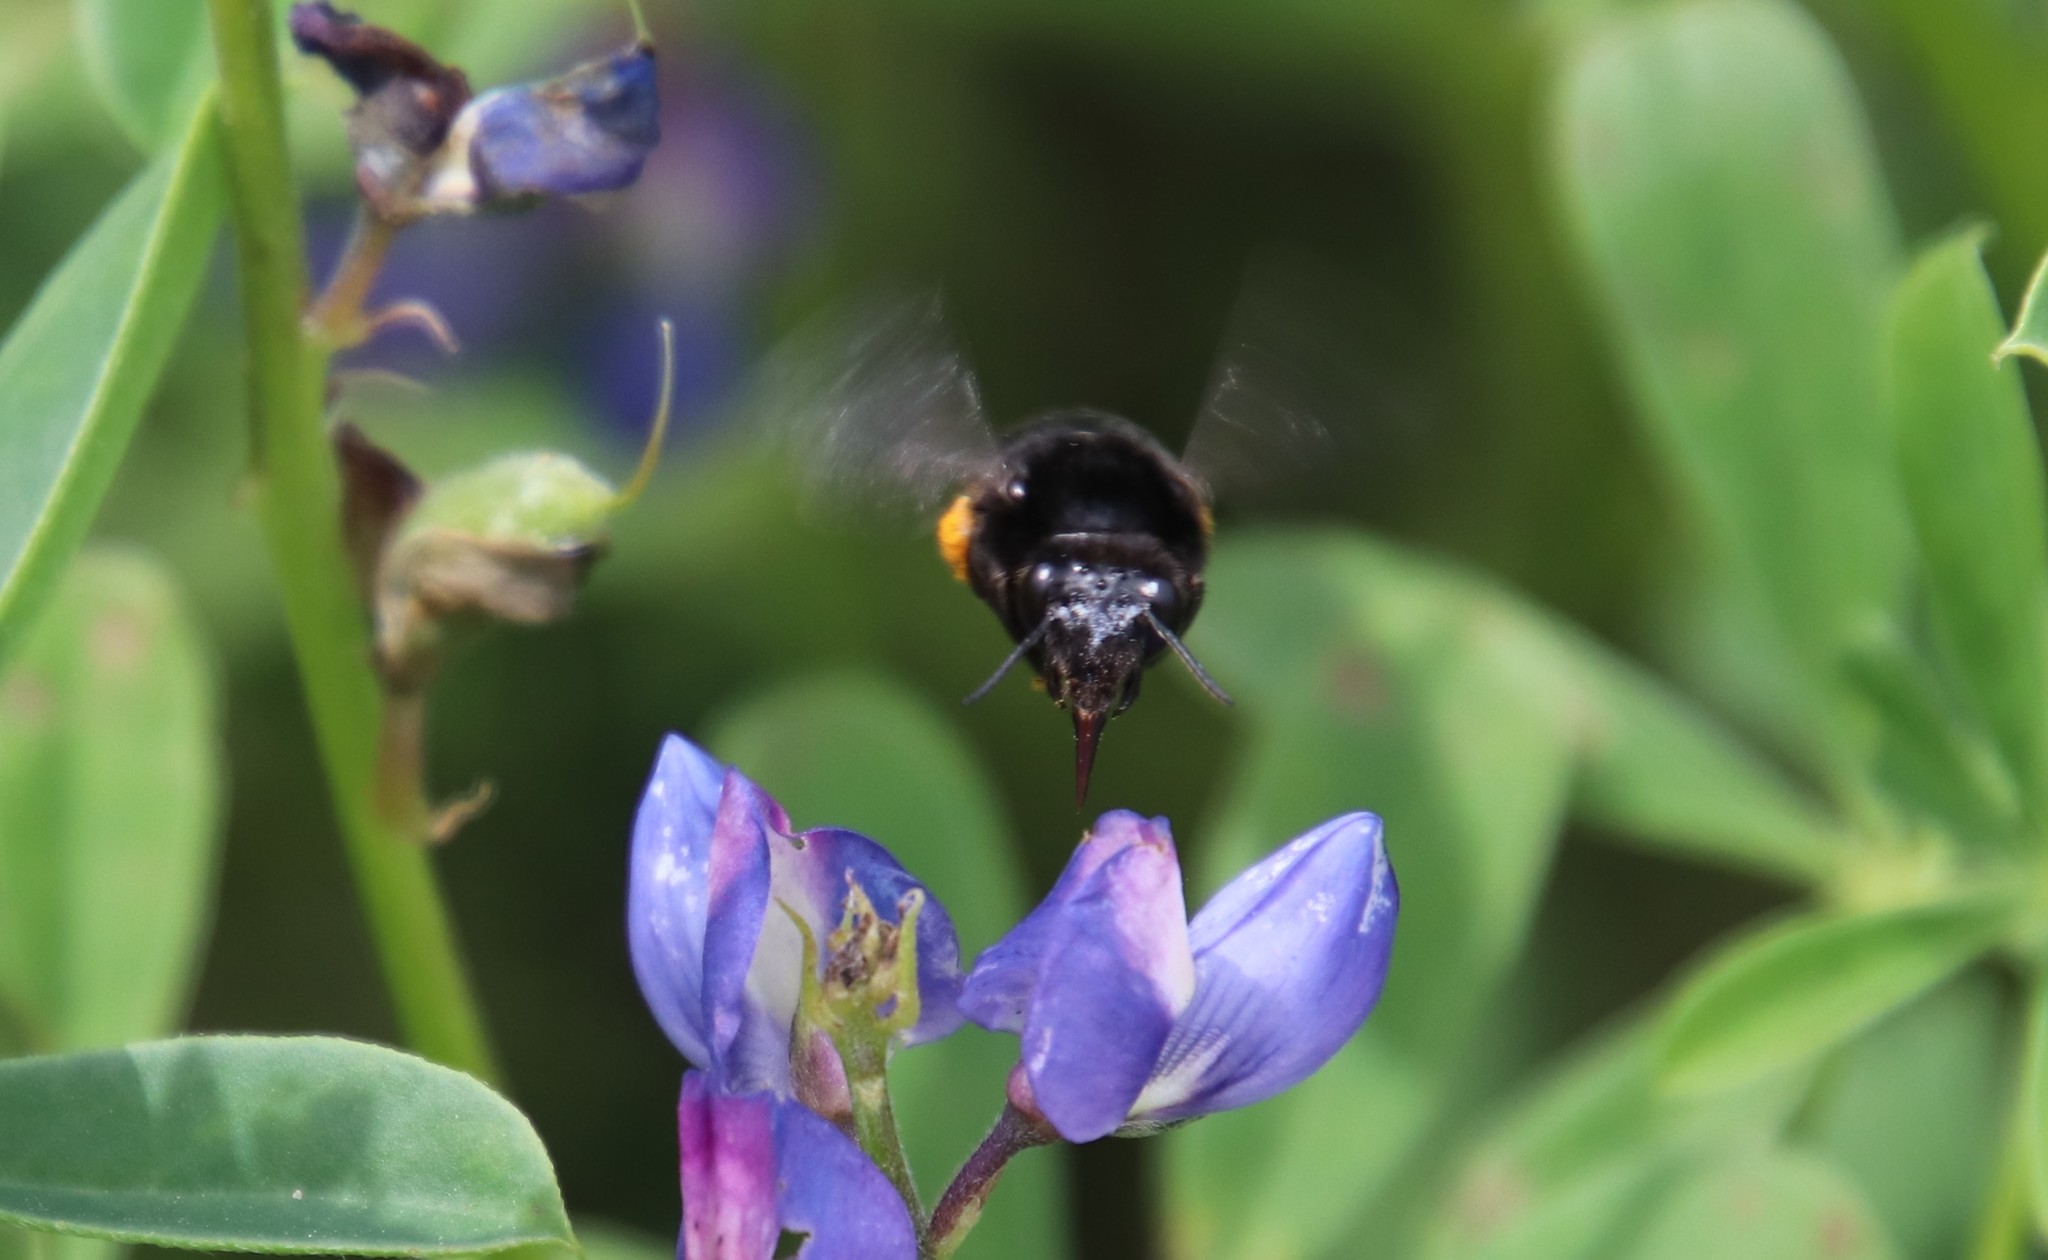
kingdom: Animalia
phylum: Arthropoda
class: Insecta
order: Hymenoptera
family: Apidae
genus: Habropoda
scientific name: Habropoda tristissima
